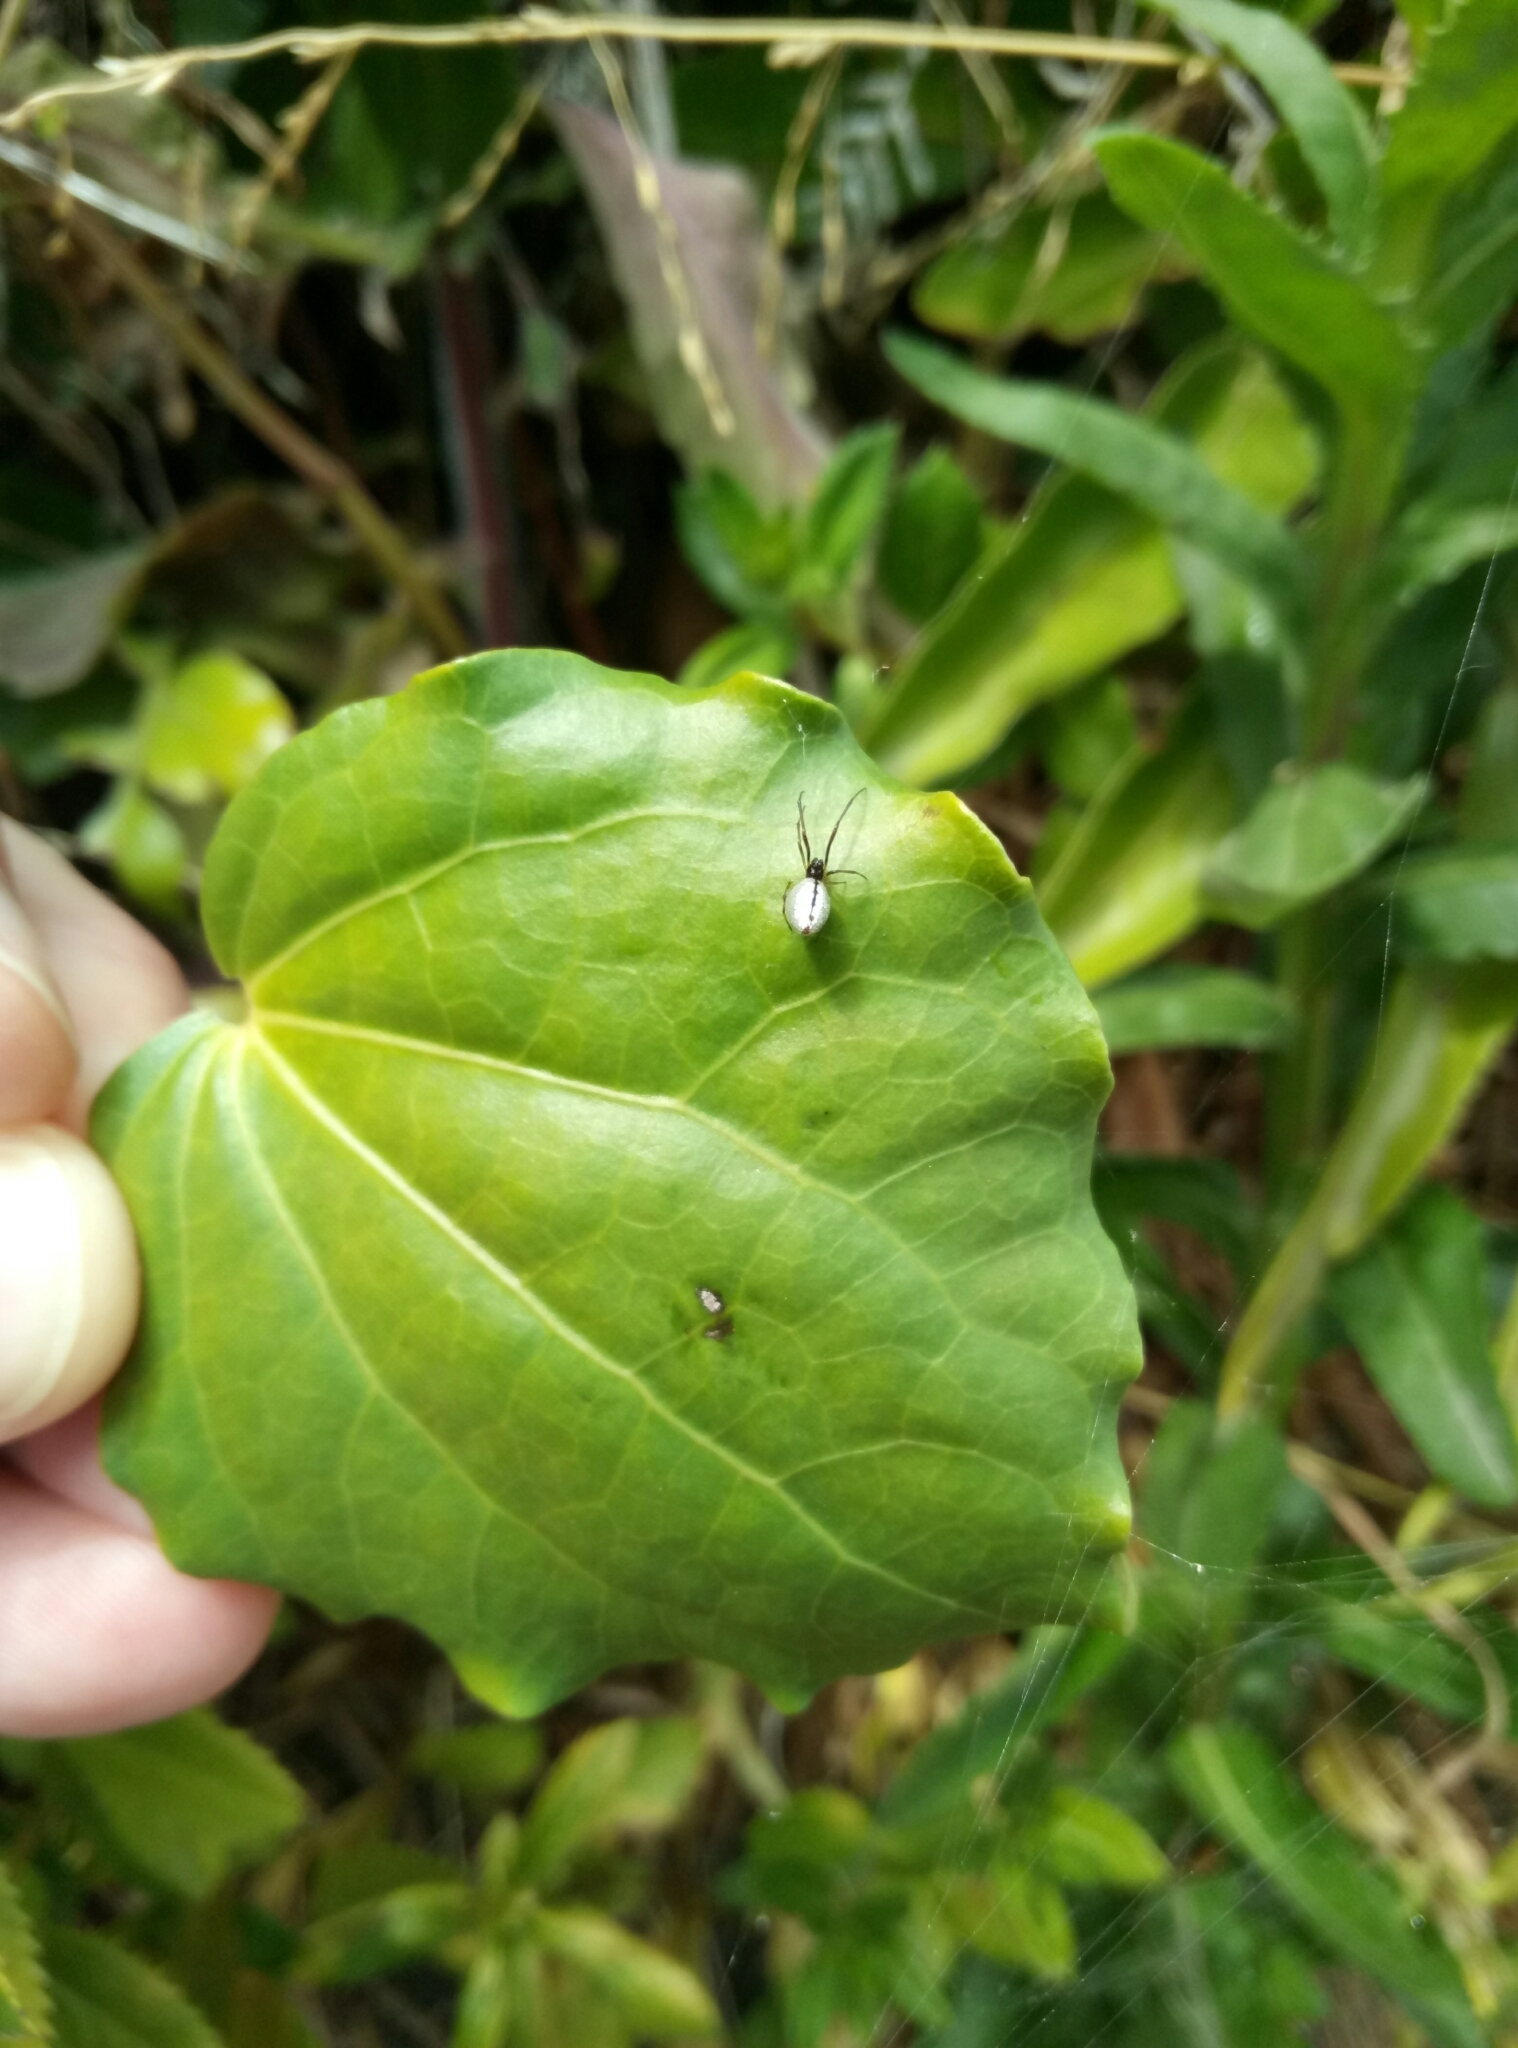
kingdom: Animalia
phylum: Arthropoda
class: Arachnida
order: Araneae
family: Theridiidae
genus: Argyrodes
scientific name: Argyrodes antipodianus
